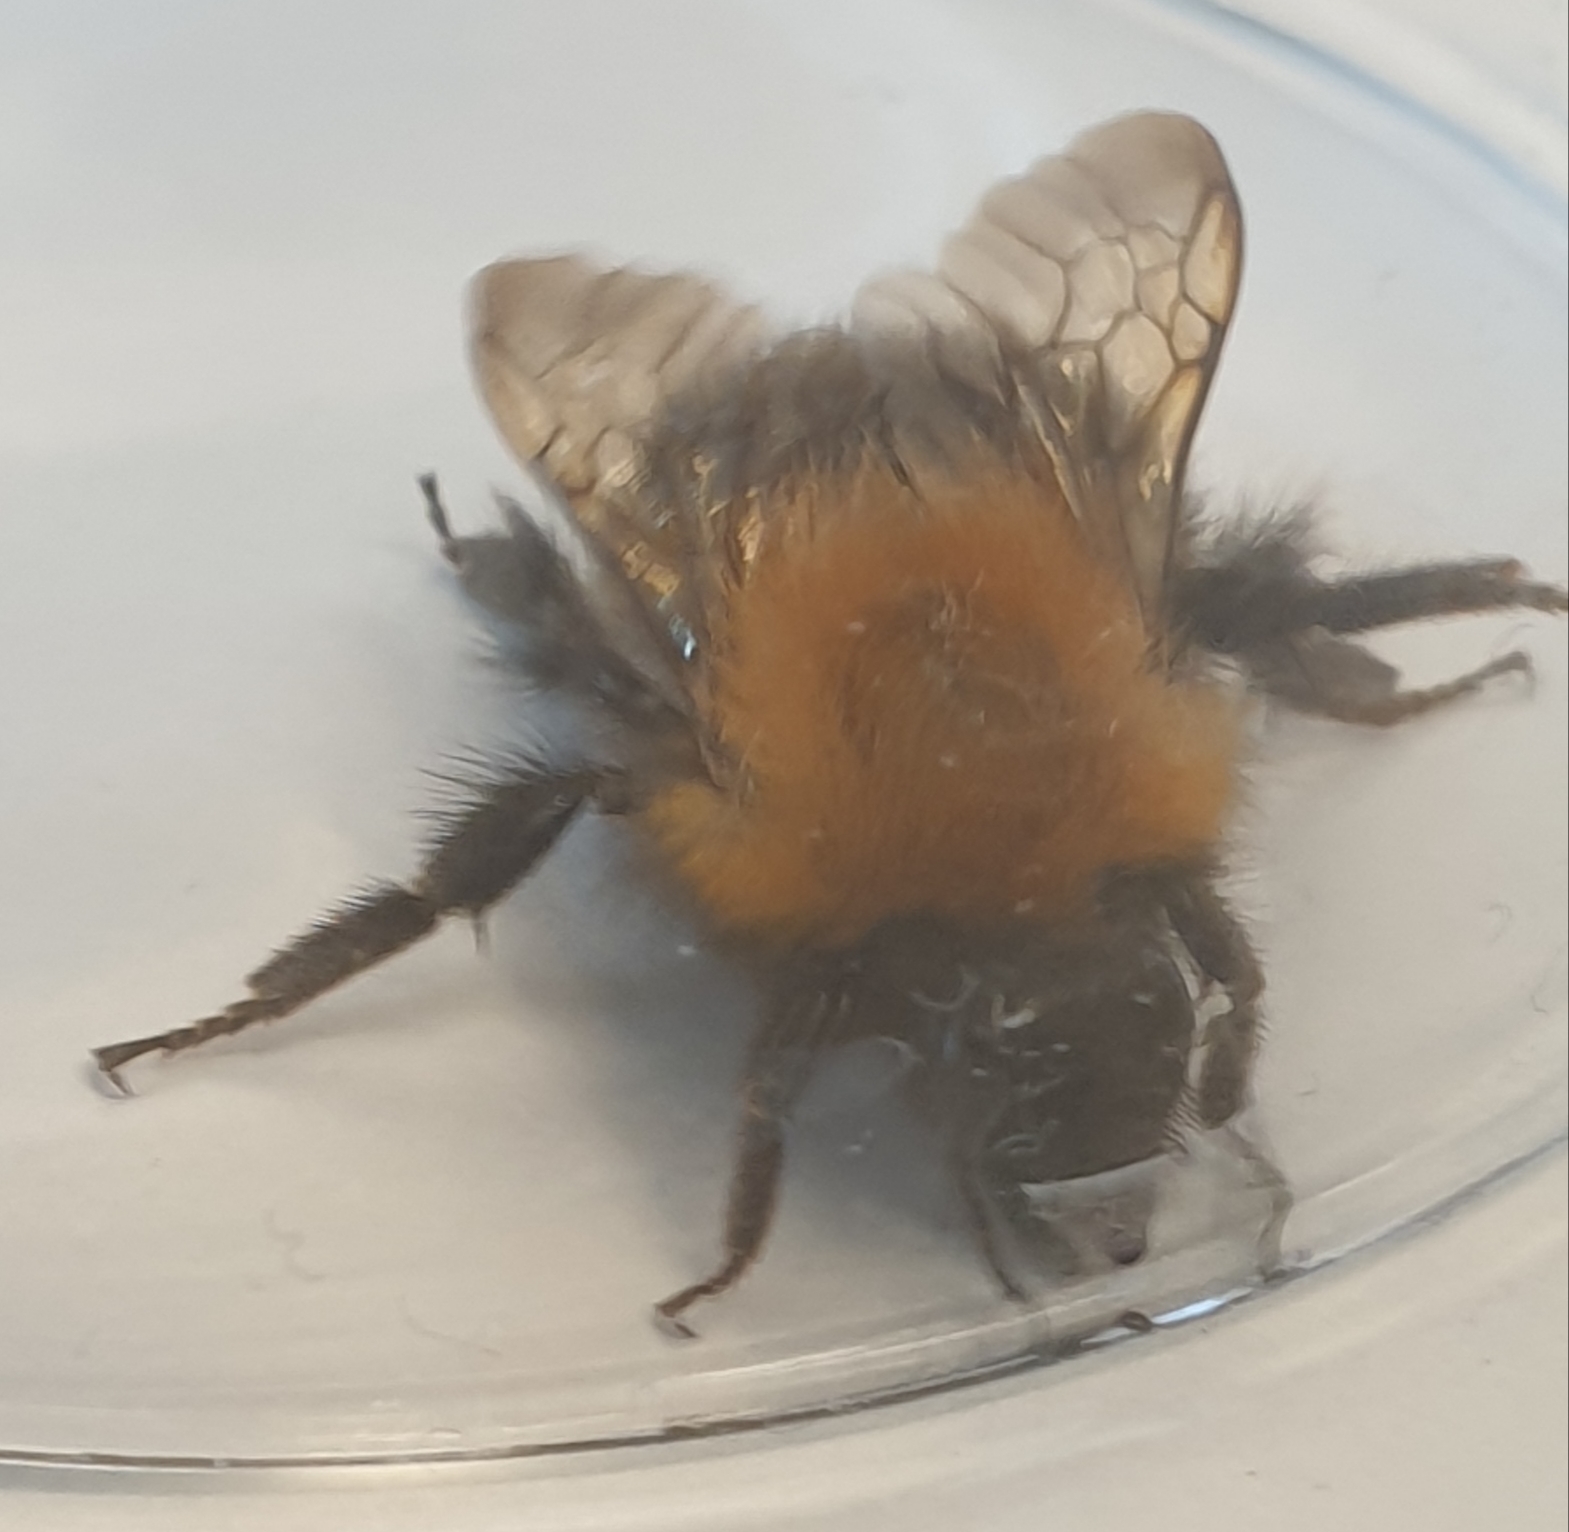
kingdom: Animalia
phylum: Arthropoda
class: Insecta
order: Hymenoptera
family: Apidae
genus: Bombus
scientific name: Bombus hypnorum
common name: New garden bumblebee
